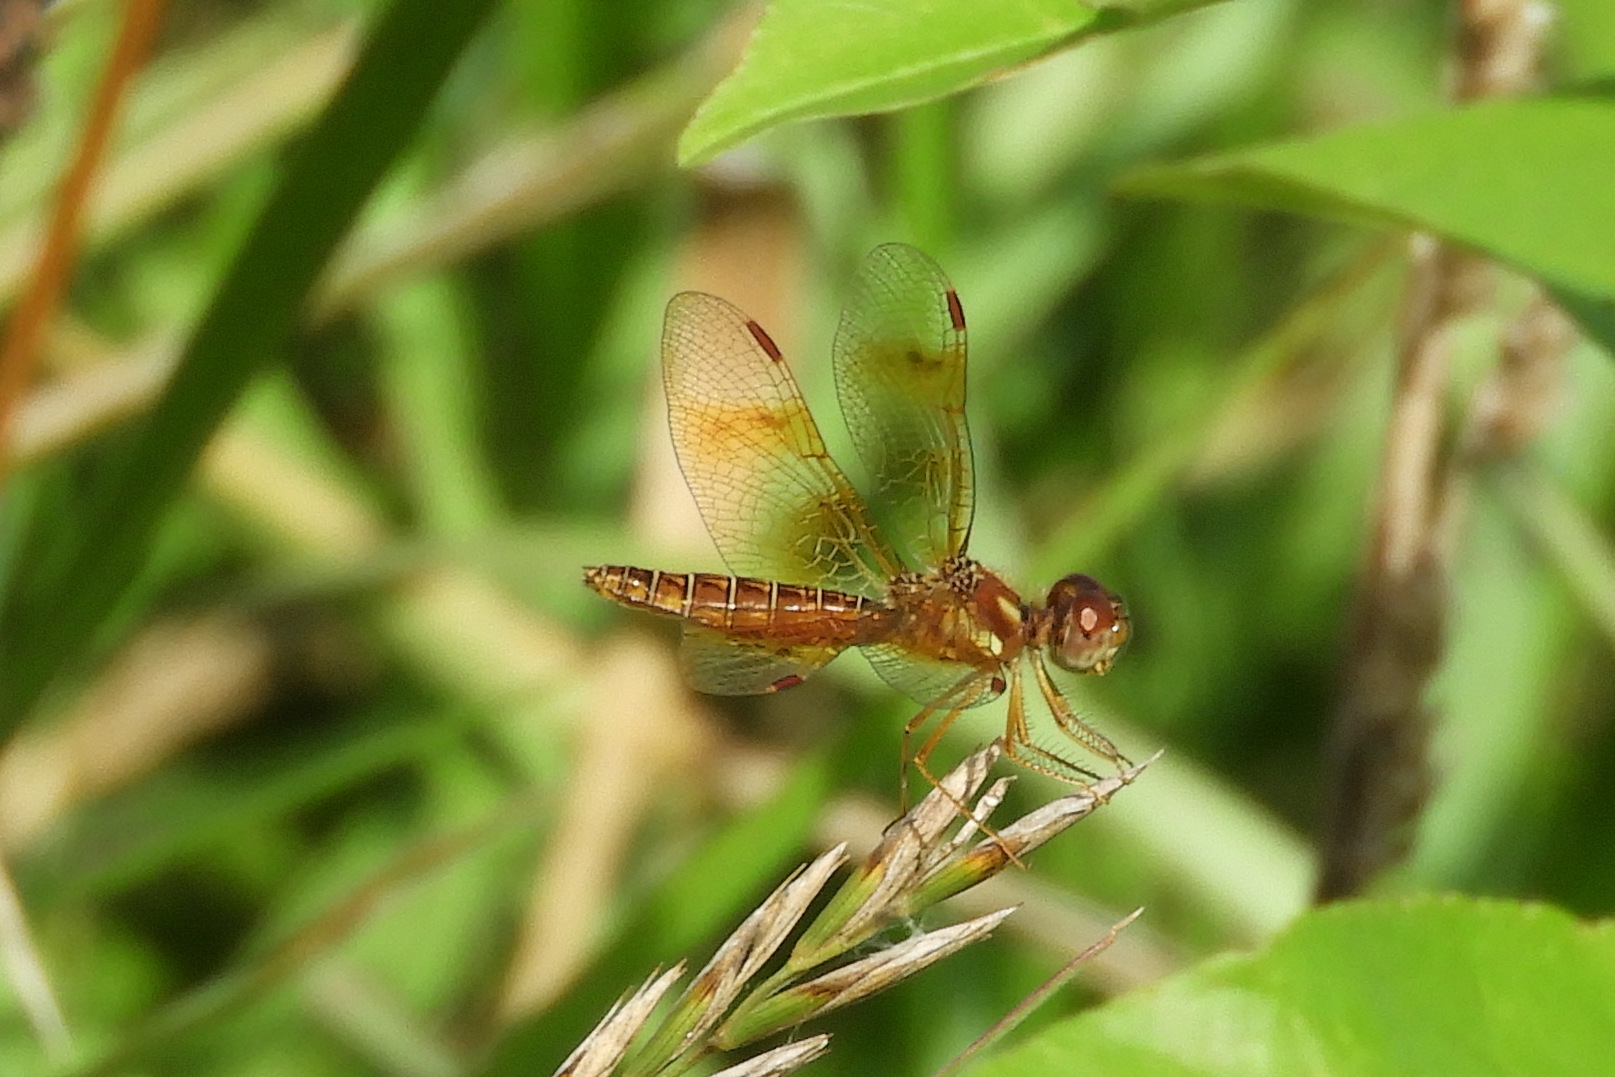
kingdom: Animalia
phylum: Arthropoda
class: Insecta
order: Odonata
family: Libellulidae
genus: Perithemis
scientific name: Perithemis tenera
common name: Eastern amberwing
